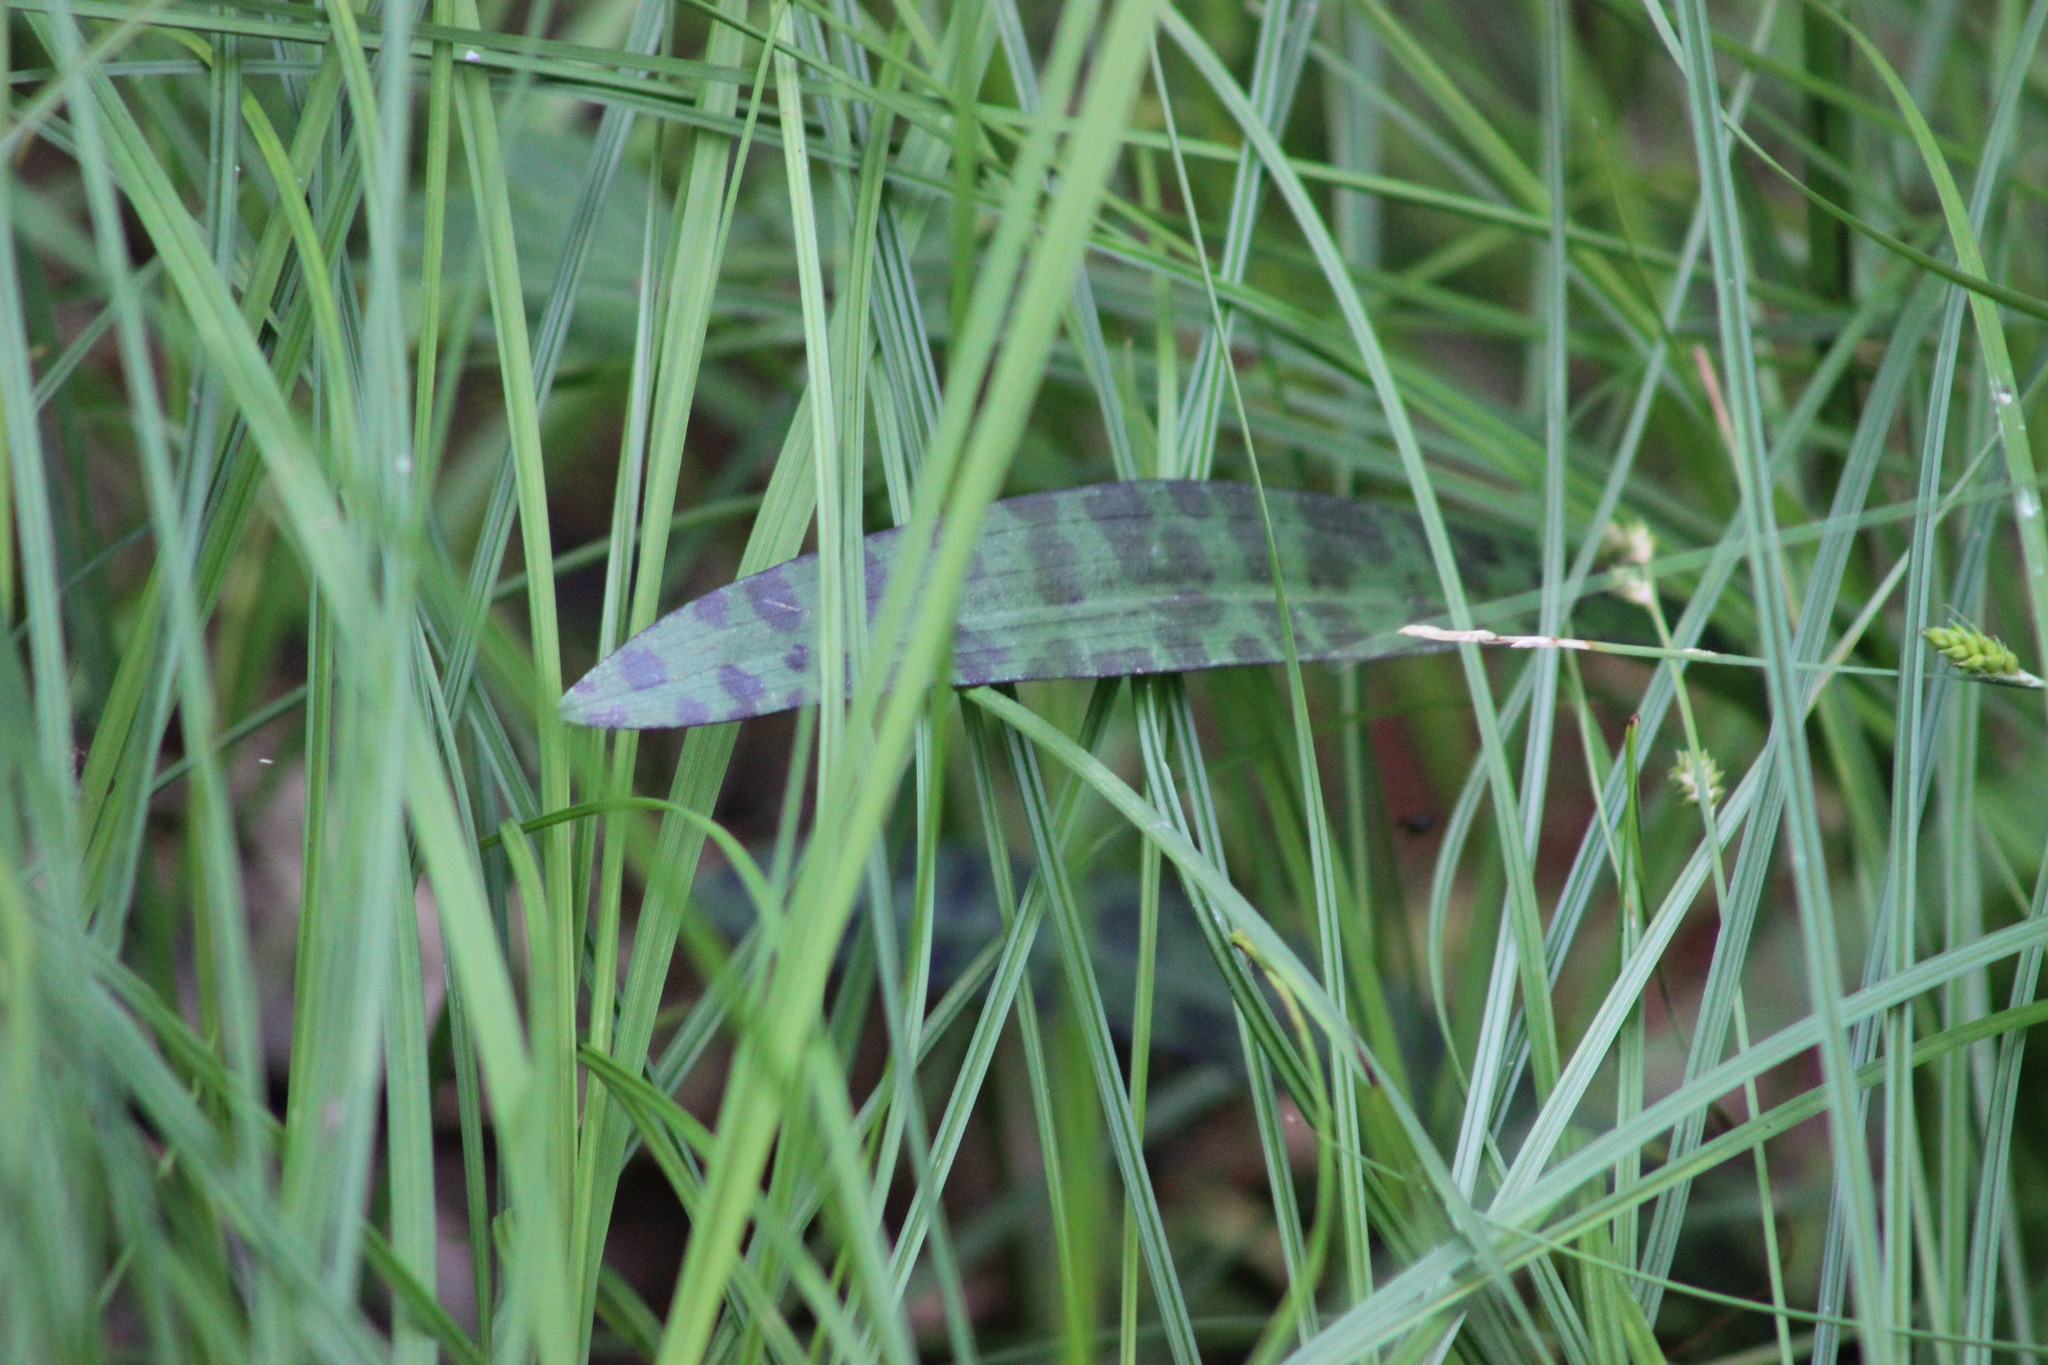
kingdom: Plantae
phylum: Tracheophyta
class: Liliopsida
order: Asparagales
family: Orchidaceae
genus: Dactylorhiza
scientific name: Dactylorhiza maculata
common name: Heath spotted-orchid
